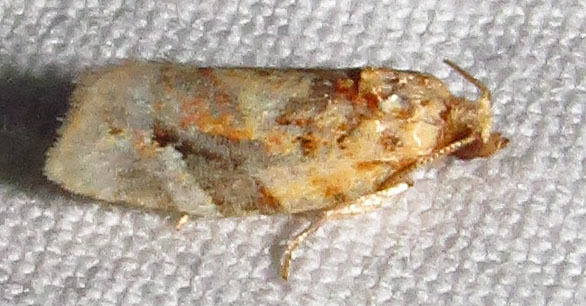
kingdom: Animalia
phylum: Arthropoda
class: Insecta
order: Lepidoptera
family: Tortricidae
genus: Argyrotaenia
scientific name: Argyrotaenia velutinana
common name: Red-banded leafroller moth
